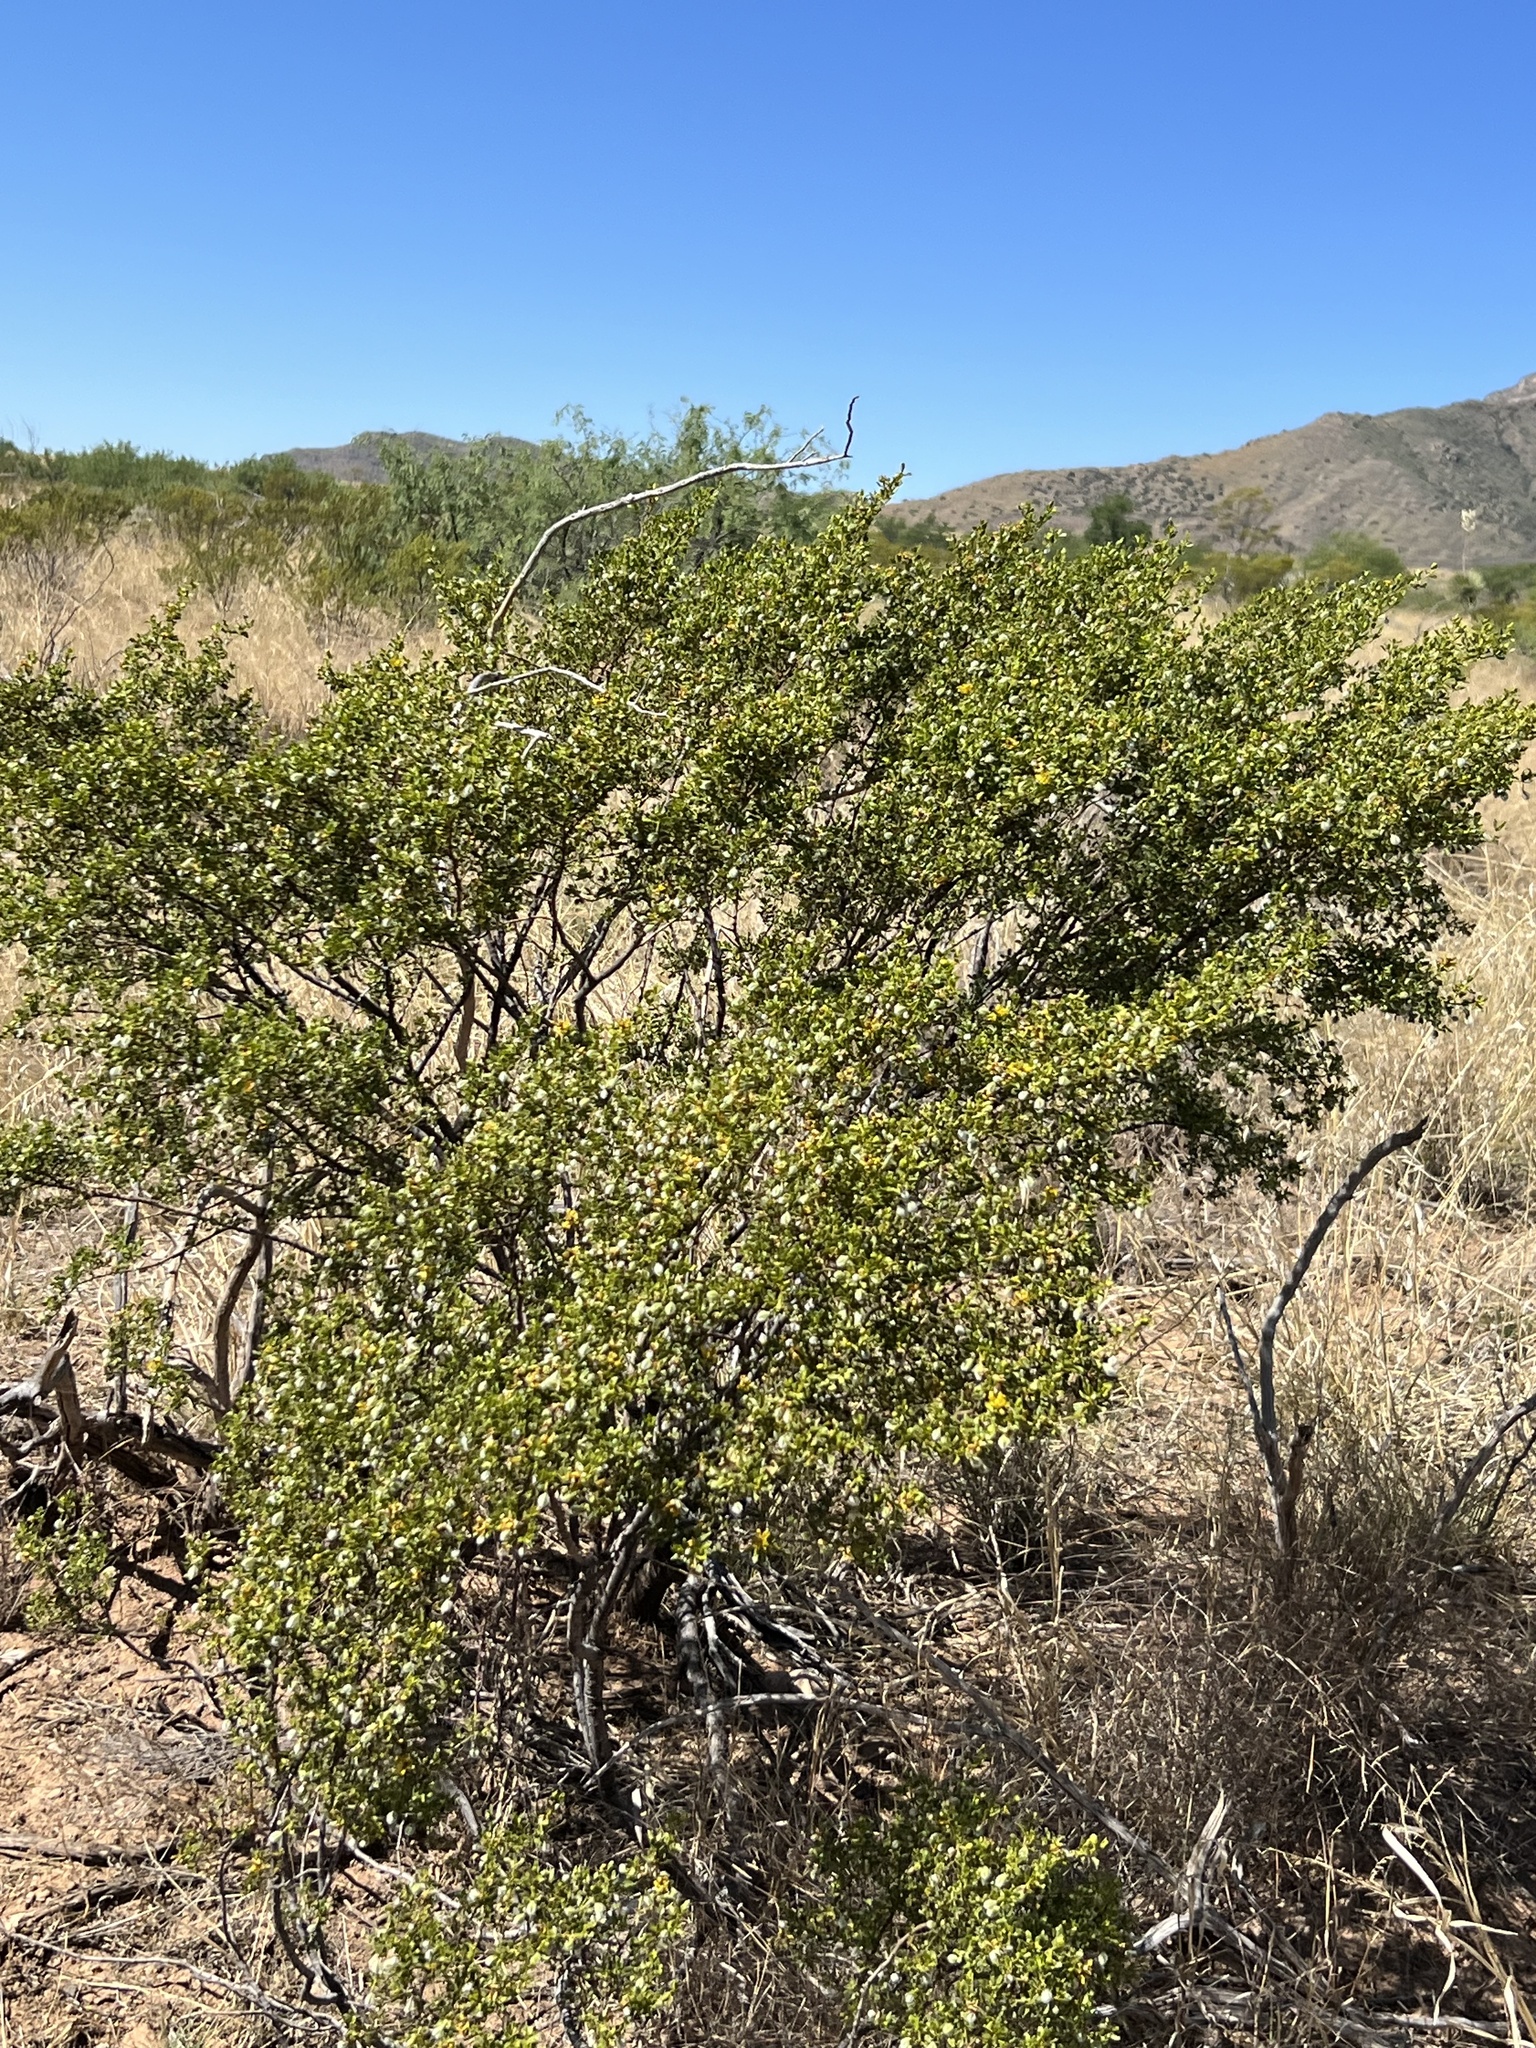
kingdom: Plantae
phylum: Tracheophyta
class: Magnoliopsida
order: Zygophyllales
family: Zygophyllaceae
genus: Larrea
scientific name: Larrea tridentata
